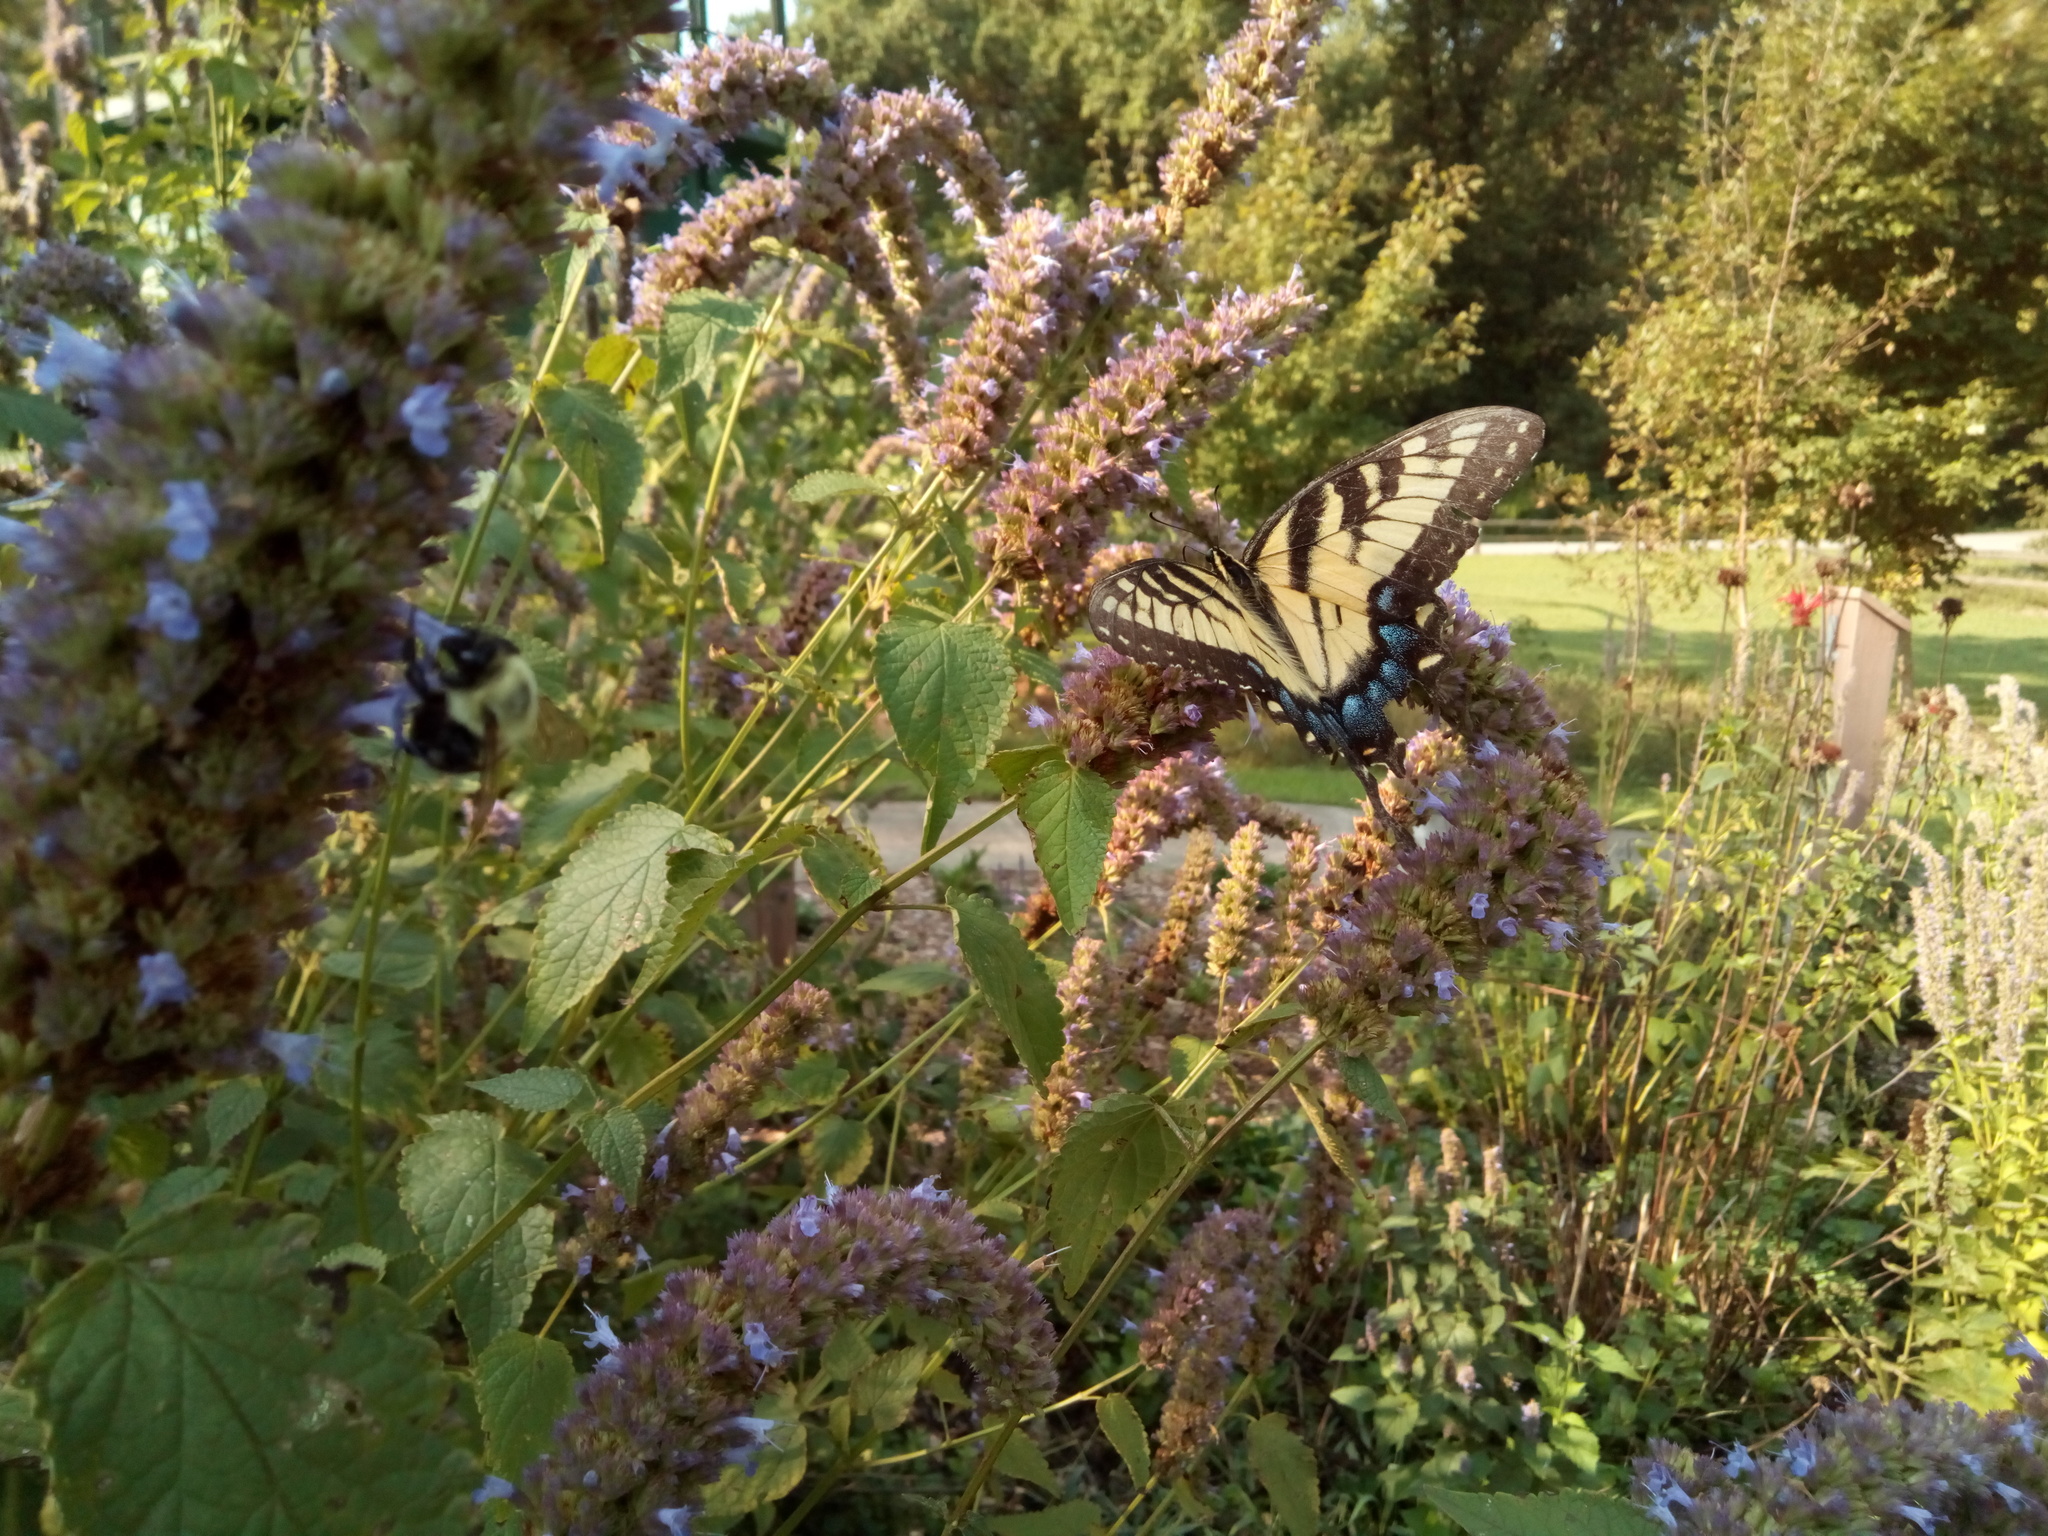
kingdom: Animalia
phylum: Arthropoda
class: Insecta
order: Lepidoptera
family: Papilionidae
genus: Papilio
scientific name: Papilio glaucus
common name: Tiger swallowtail
